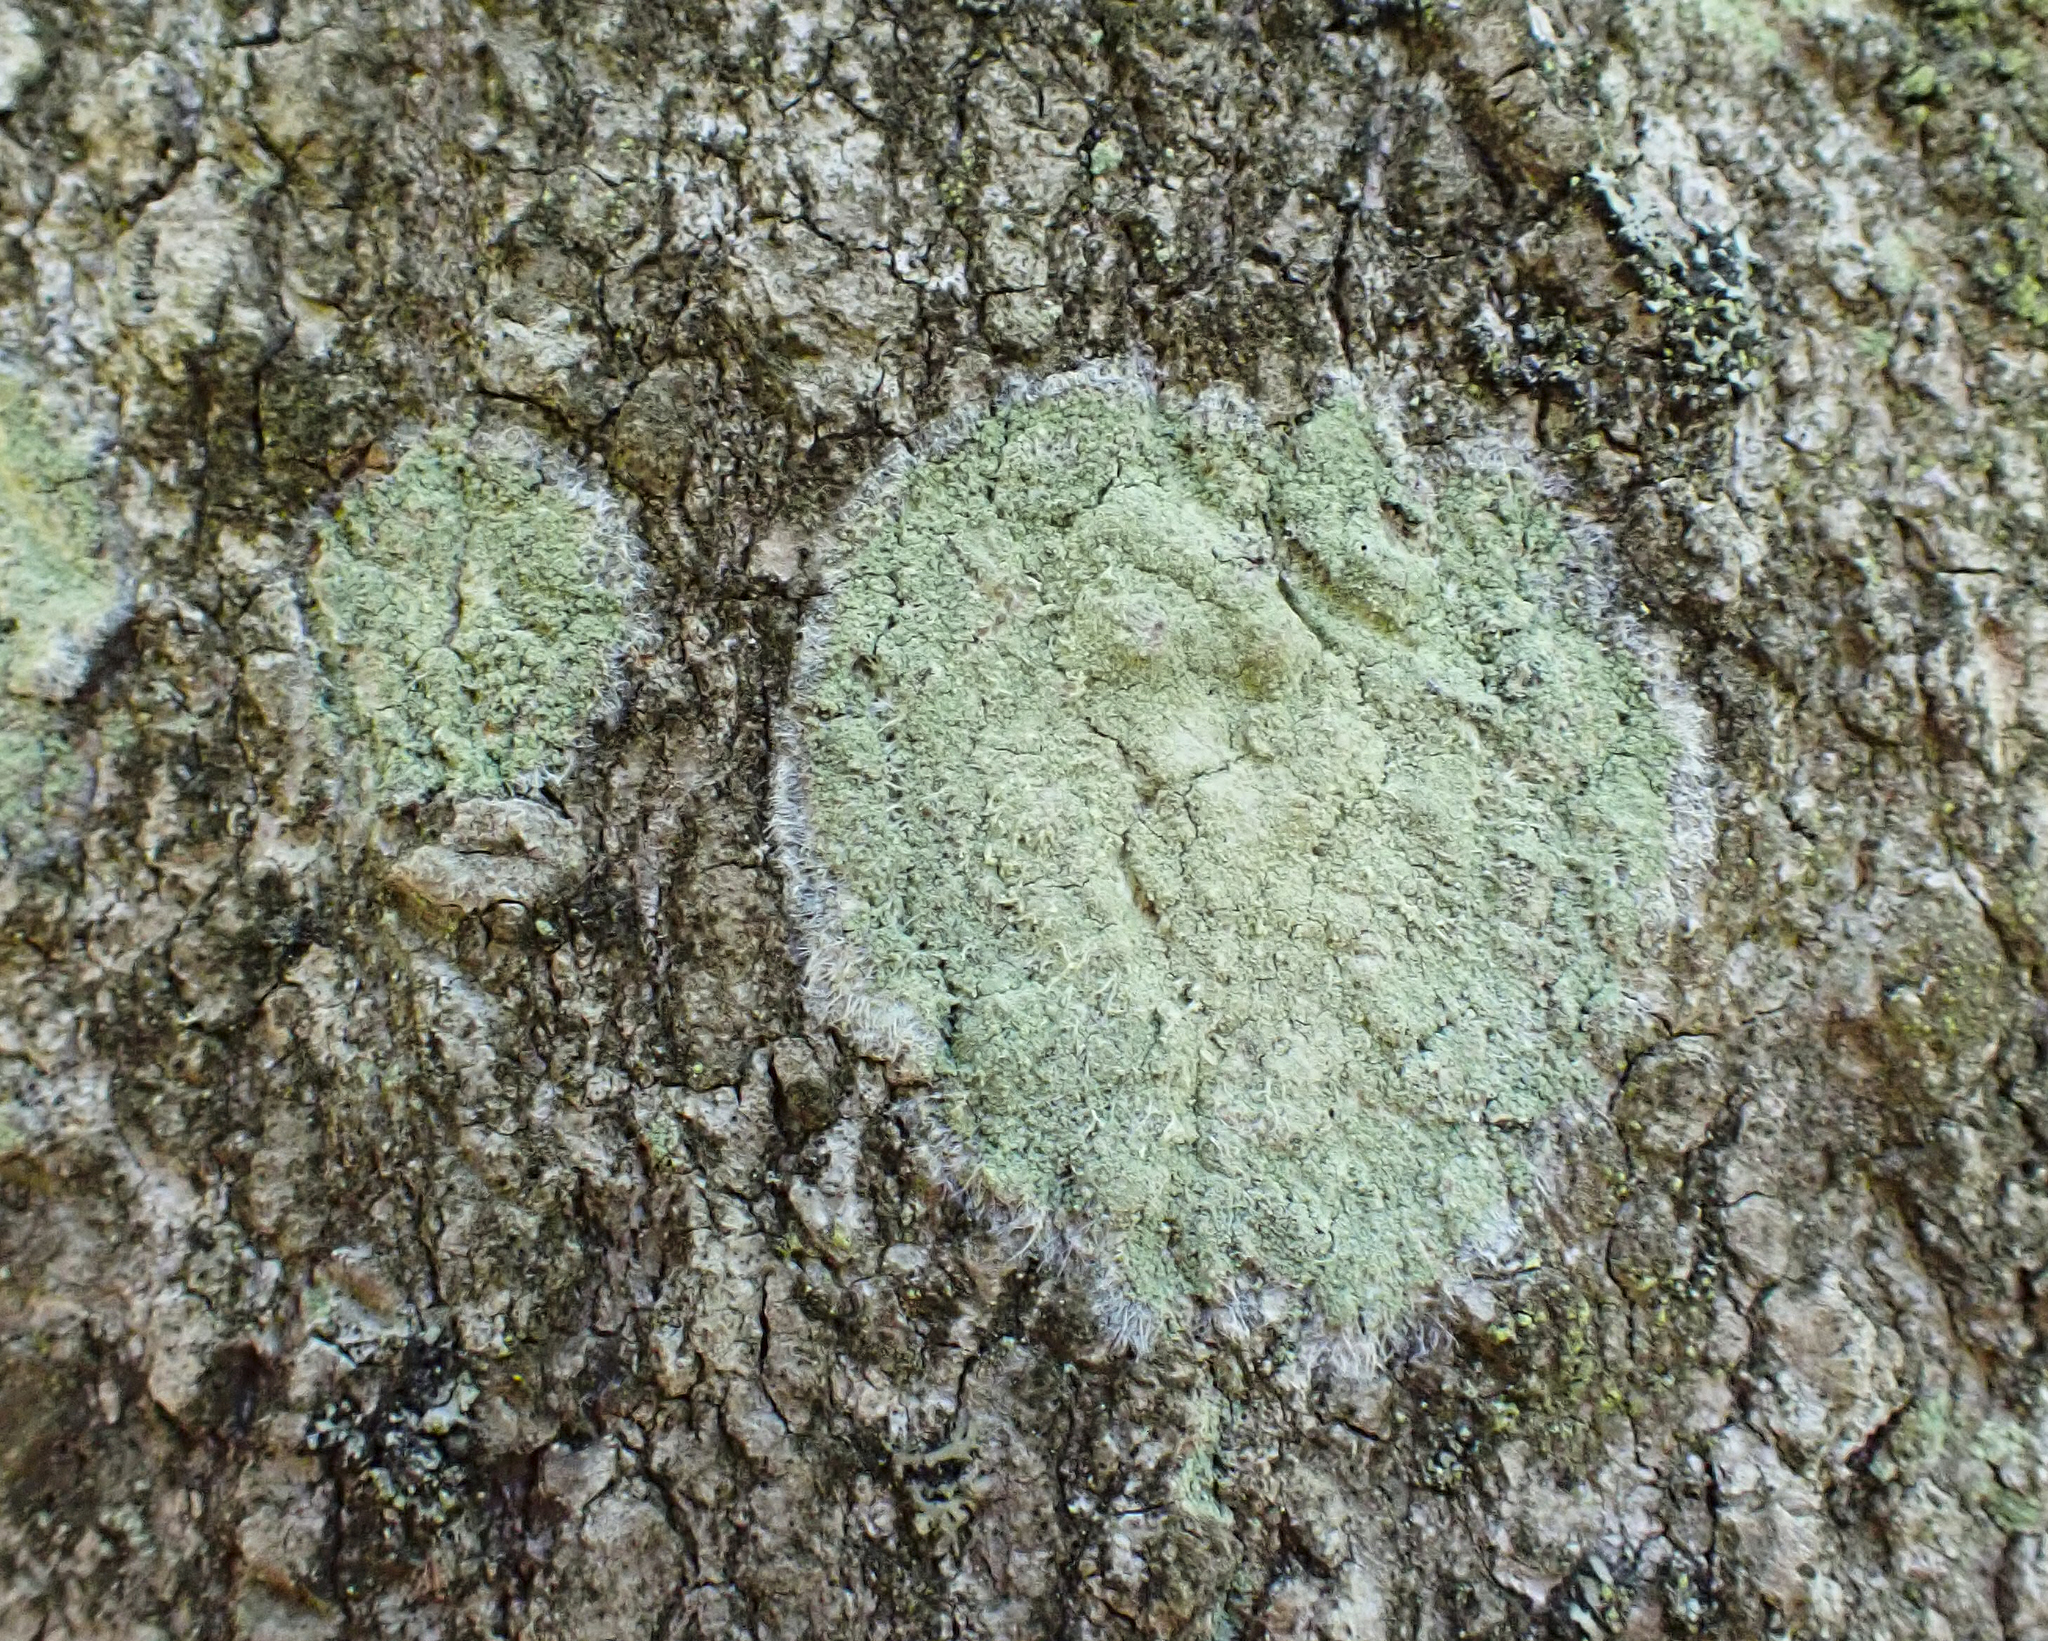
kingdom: Fungi
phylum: Ascomycota
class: Lecanoromycetes
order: Pertusariales
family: Pertusariaceae
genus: Verseghya
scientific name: Verseghya thysanophora
